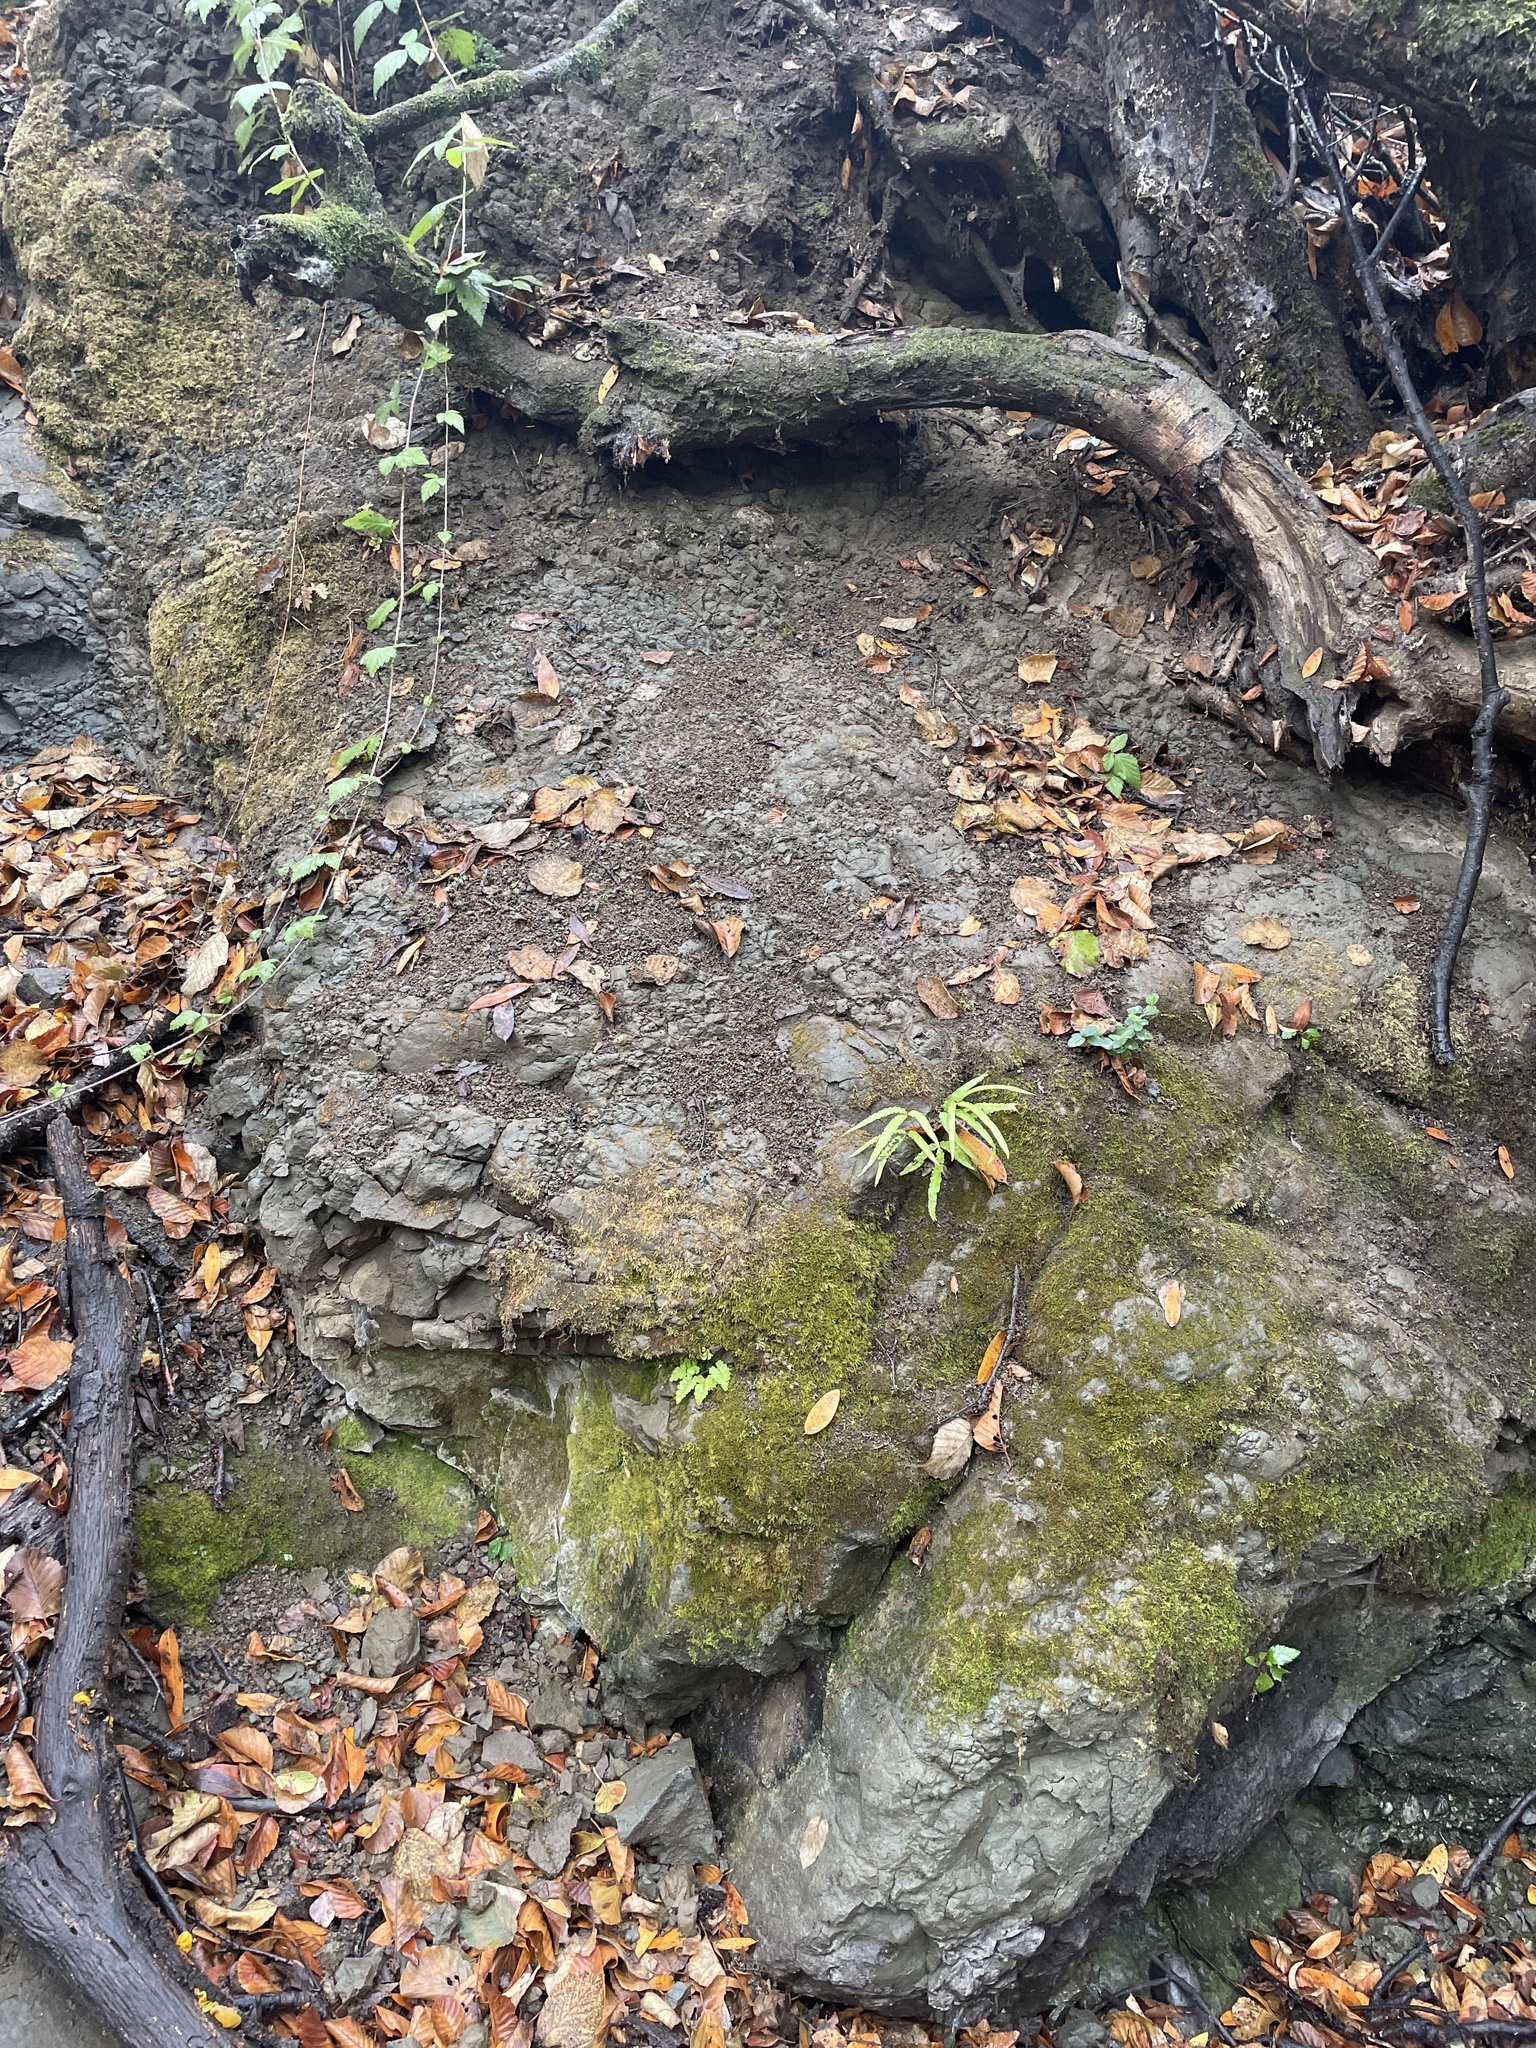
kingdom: Plantae
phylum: Tracheophyta
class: Polypodiopsida
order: Polypodiales
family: Pteridaceae
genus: Pteris
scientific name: Pteris cretica
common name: Ribbon fern
